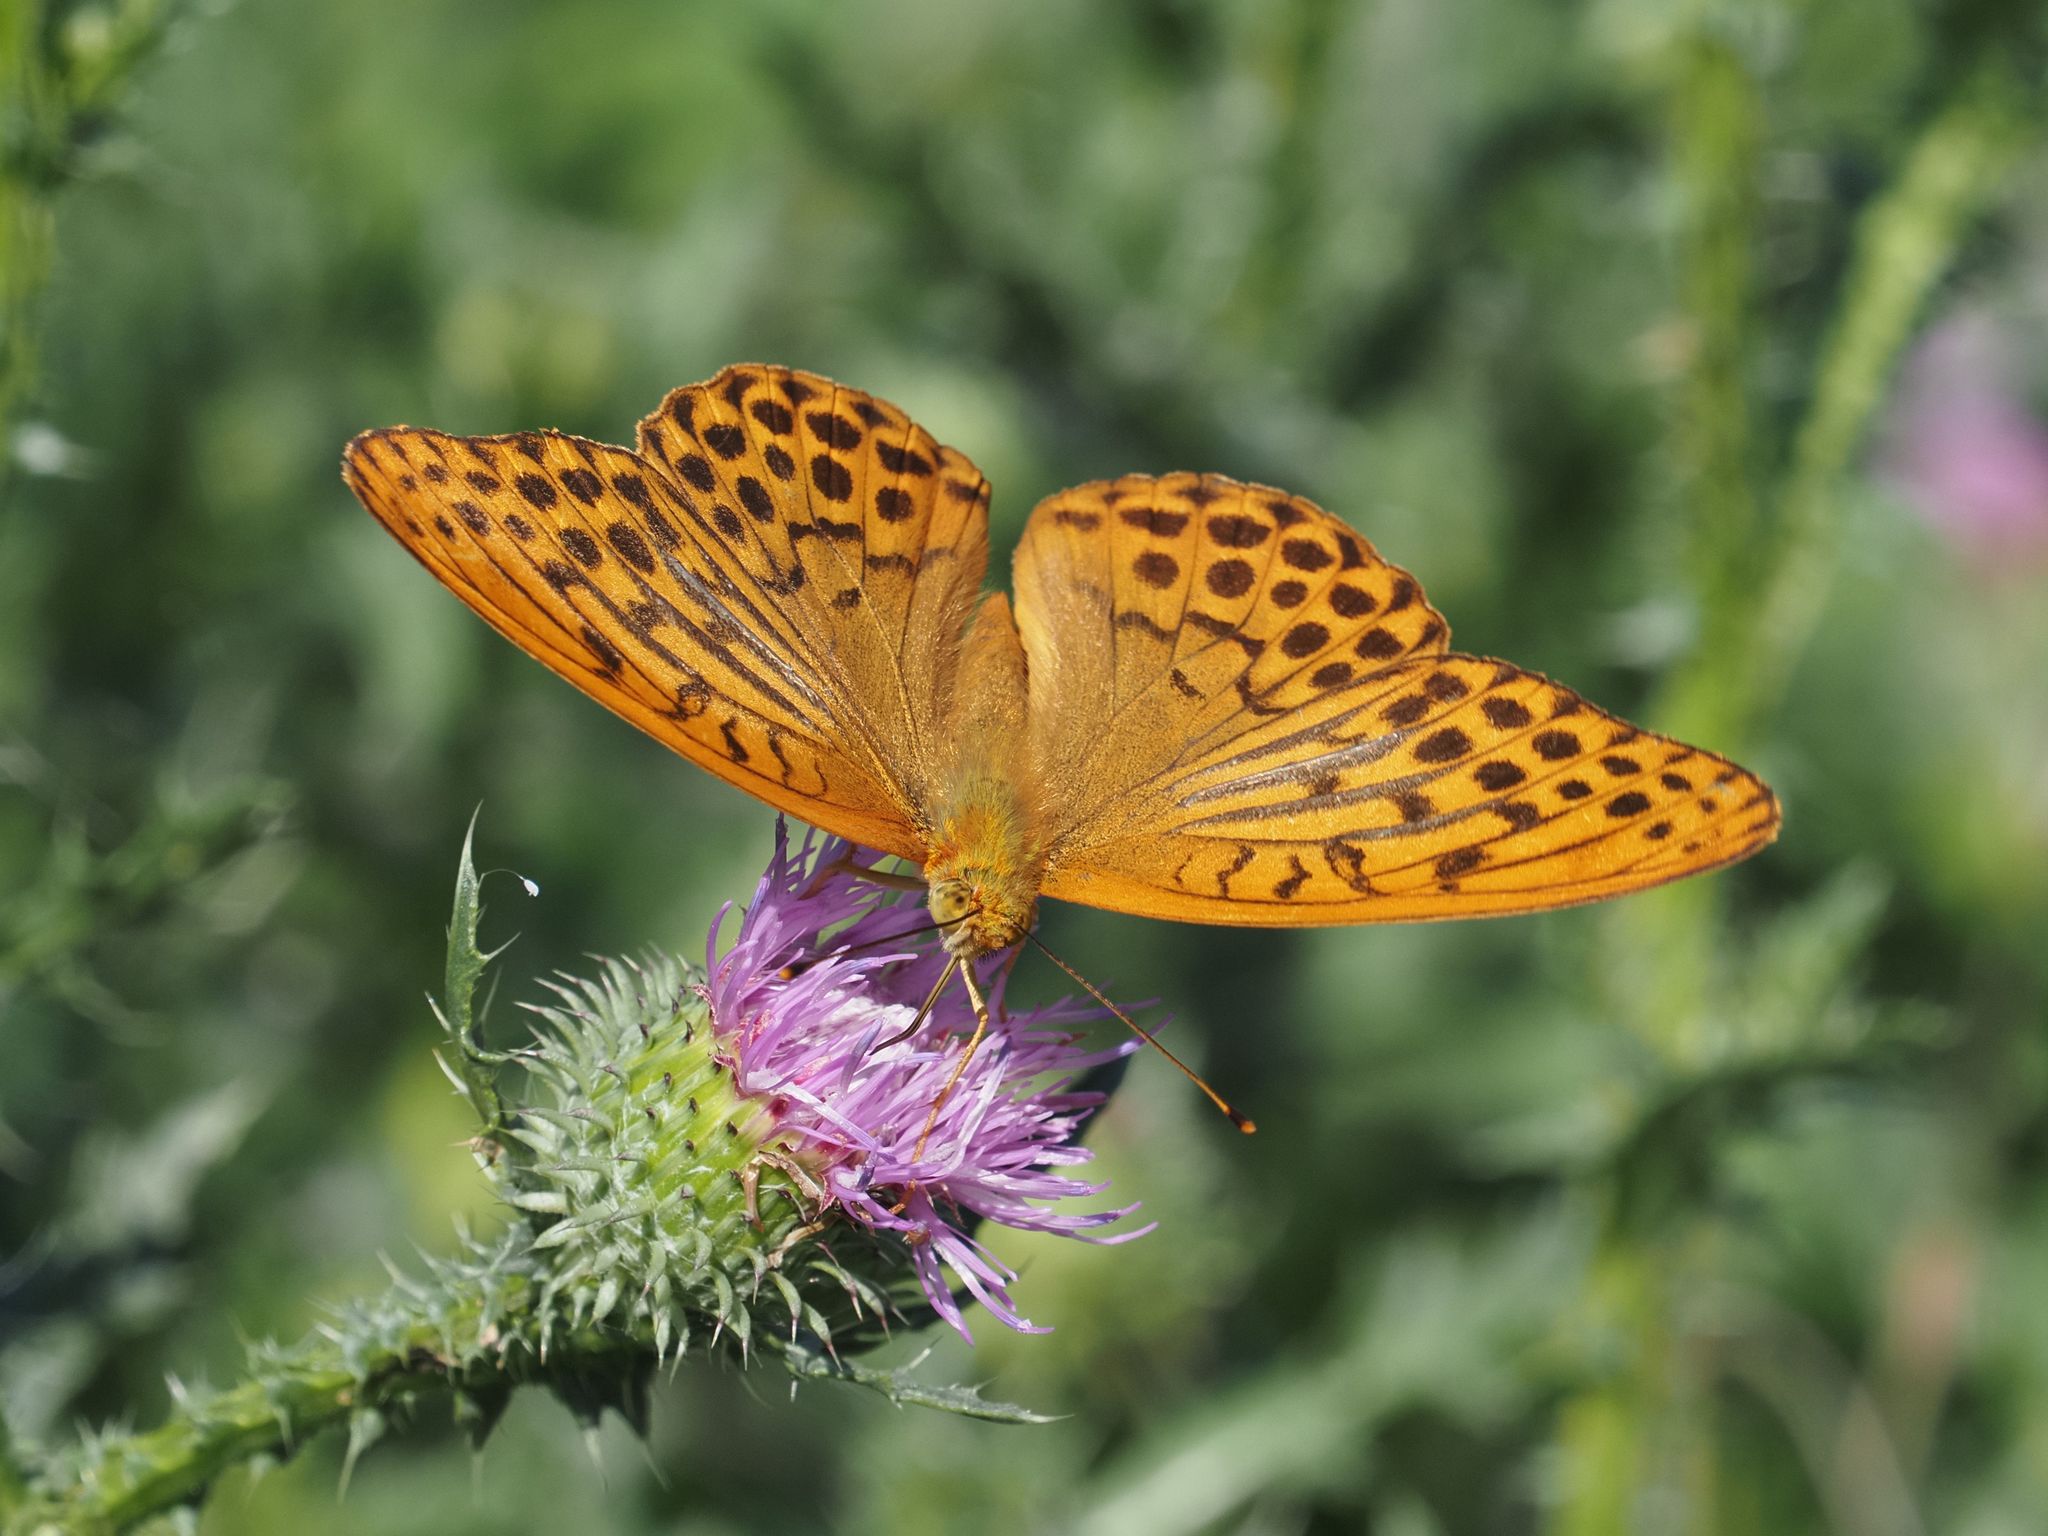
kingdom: Animalia
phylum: Arthropoda
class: Insecta
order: Lepidoptera
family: Nymphalidae
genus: Argynnis
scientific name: Argynnis paphia
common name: Silver-washed fritillary
